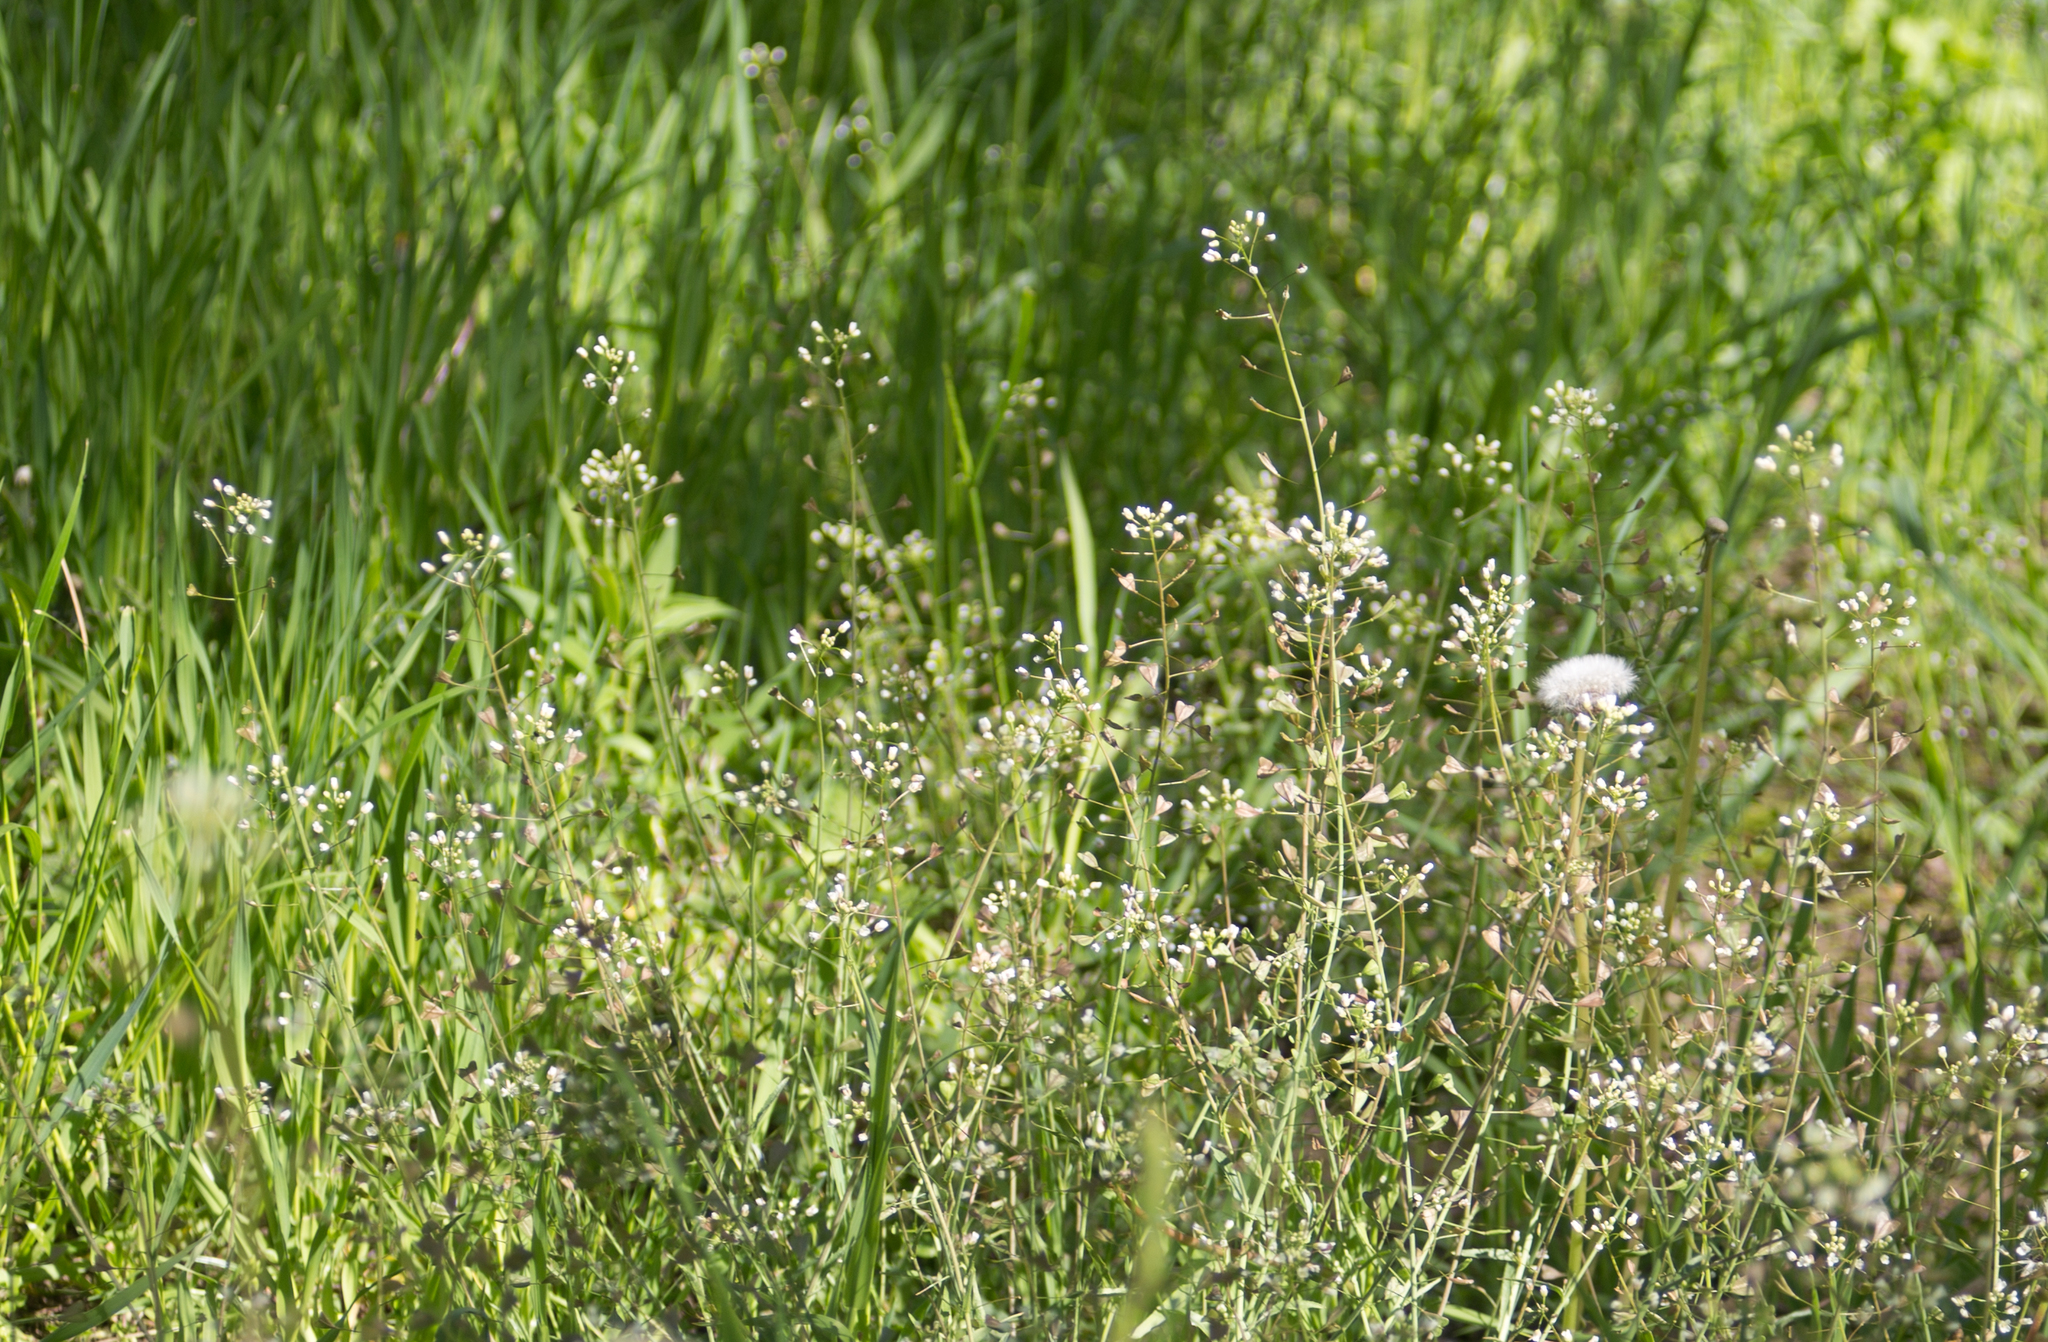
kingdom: Plantae
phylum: Tracheophyta
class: Magnoliopsida
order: Brassicales
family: Brassicaceae
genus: Capsella
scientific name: Capsella bursa-pastoris
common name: Shepherd's purse
